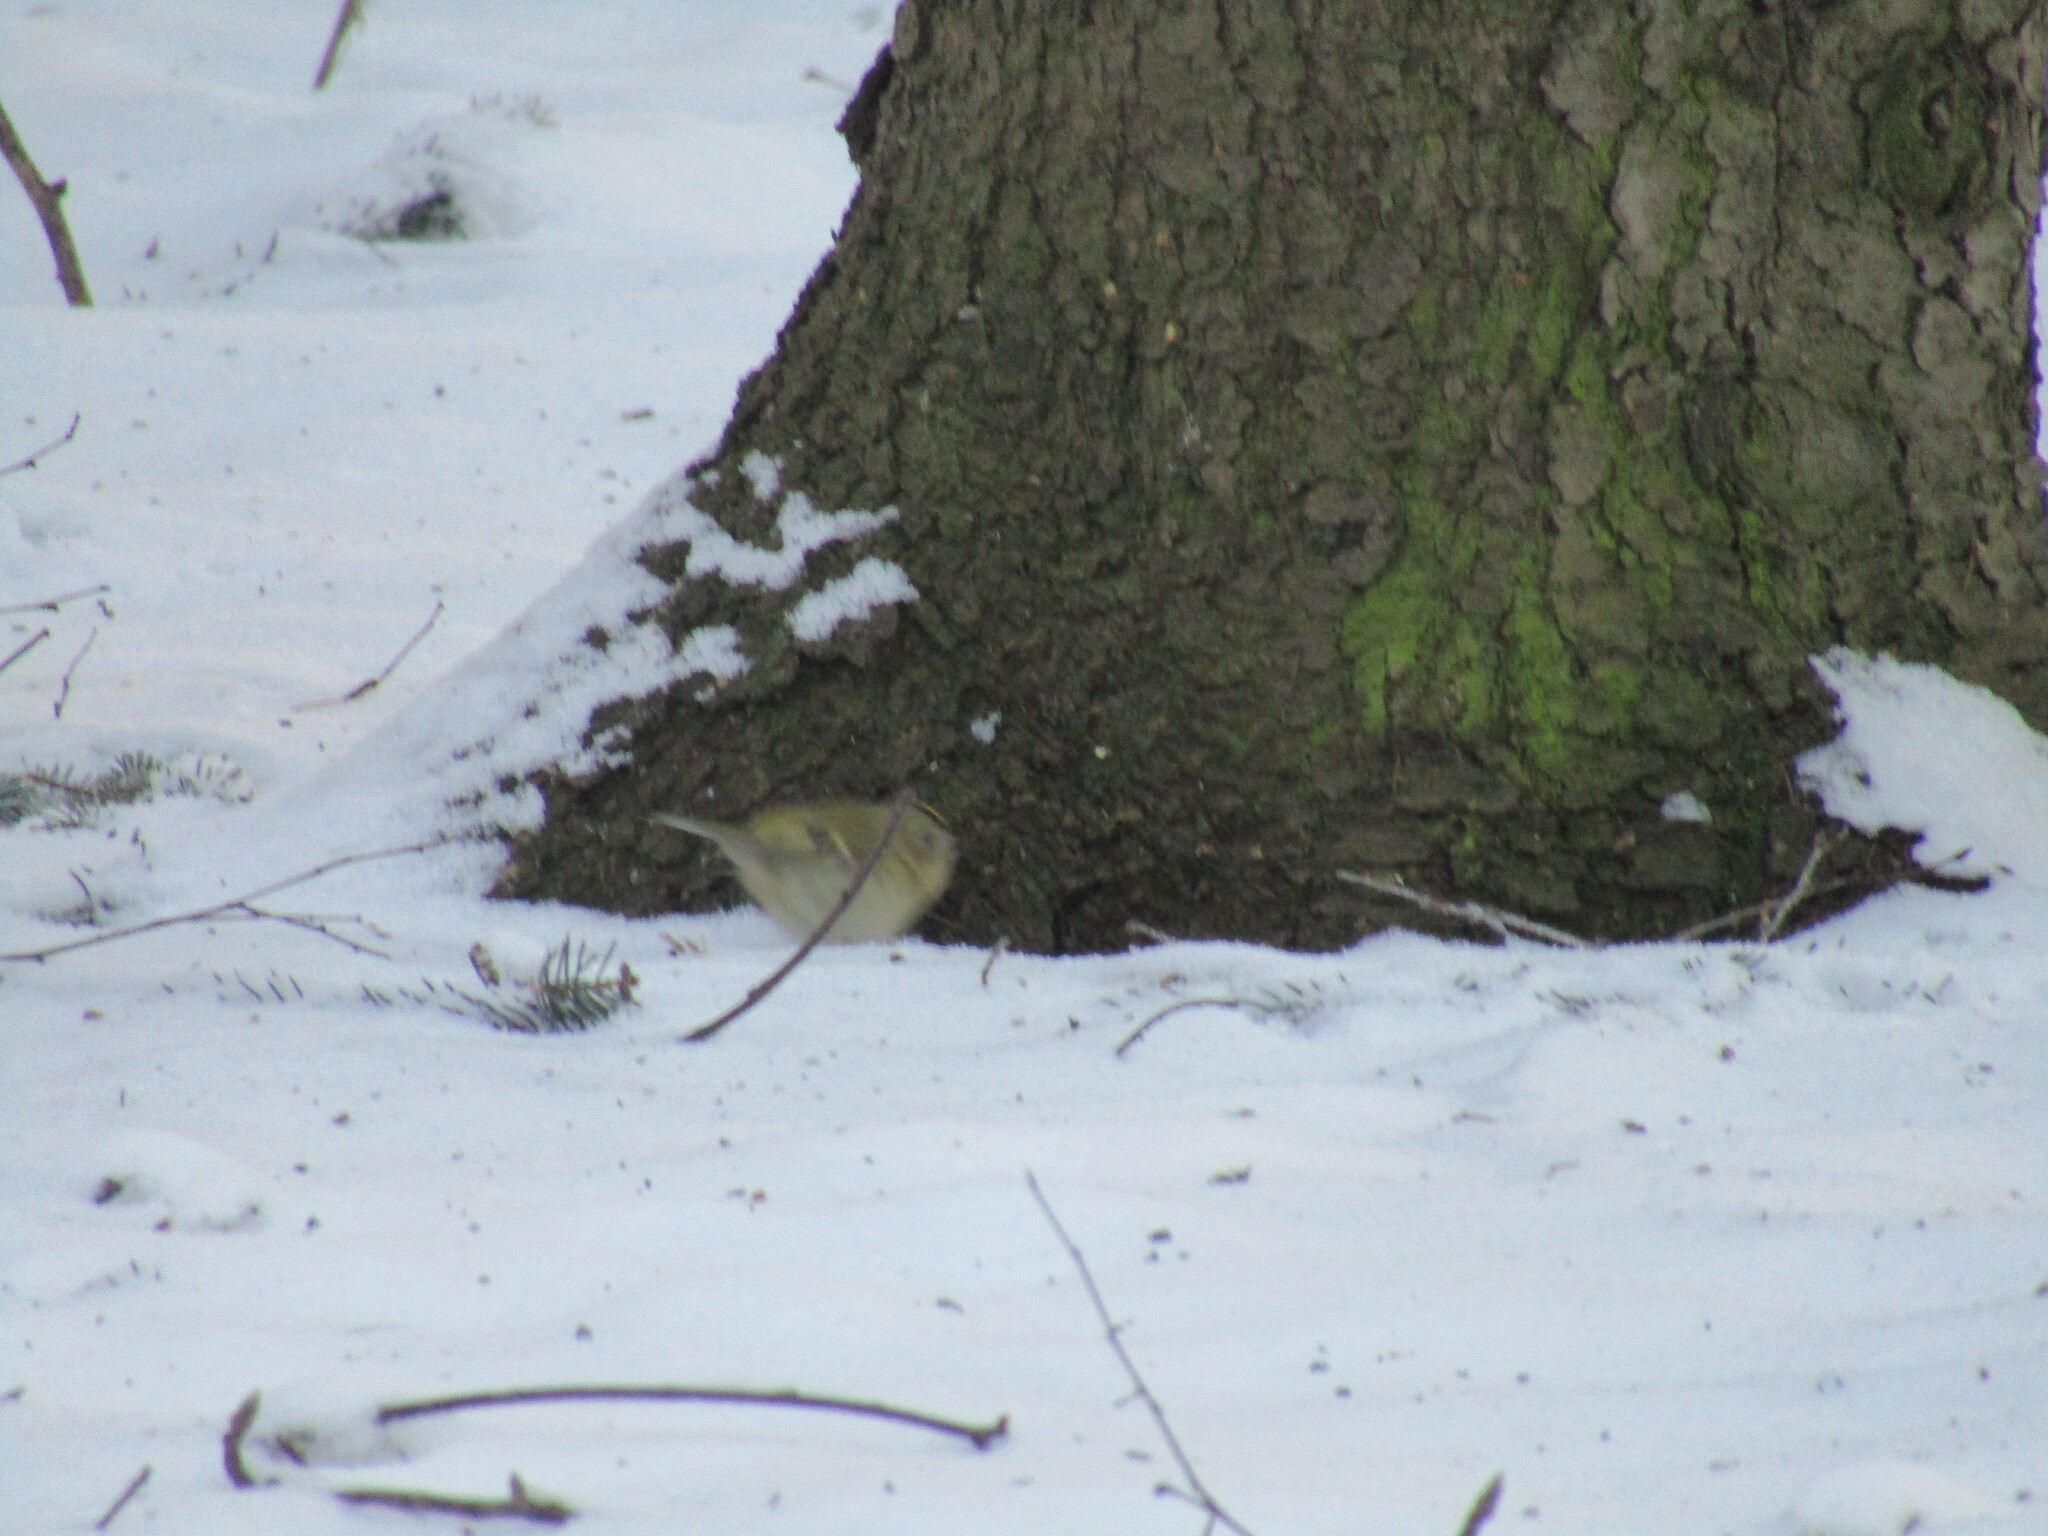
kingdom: Animalia
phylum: Chordata
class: Aves
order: Passeriformes
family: Regulidae
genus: Regulus
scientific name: Regulus regulus
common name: Goldcrest
